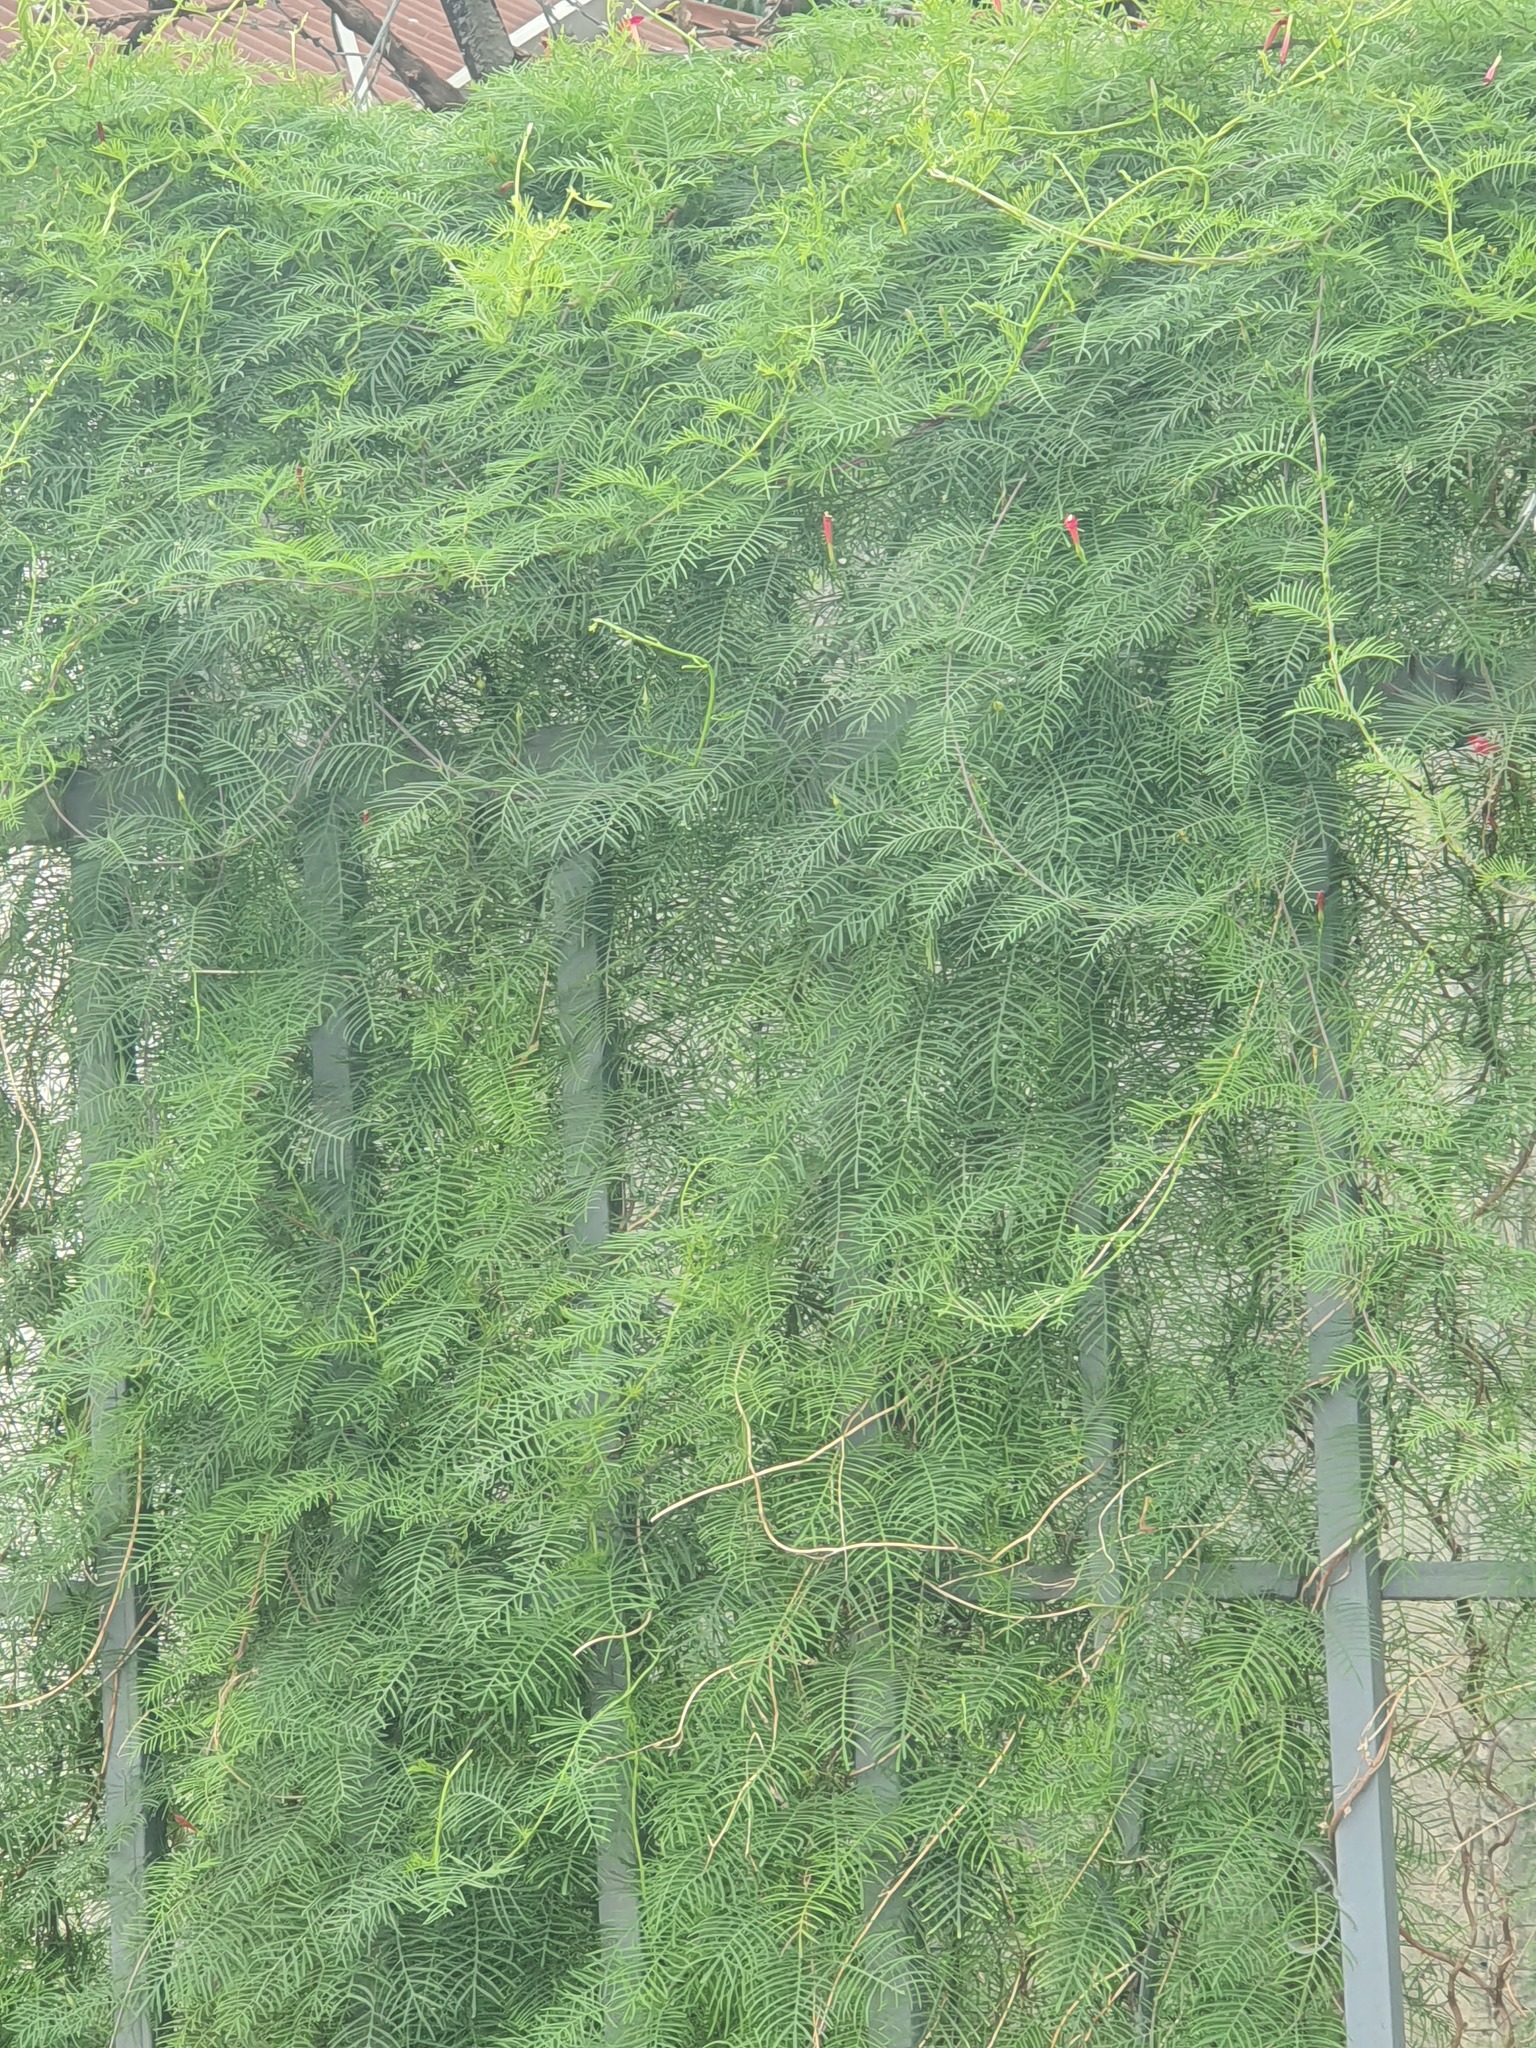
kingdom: Plantae
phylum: Tracheophyta
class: Magnoliopsida
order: Solanales
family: Convolvulaceae
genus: Ipomoea
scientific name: Ipomoea quamoclit
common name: Cypress vine
